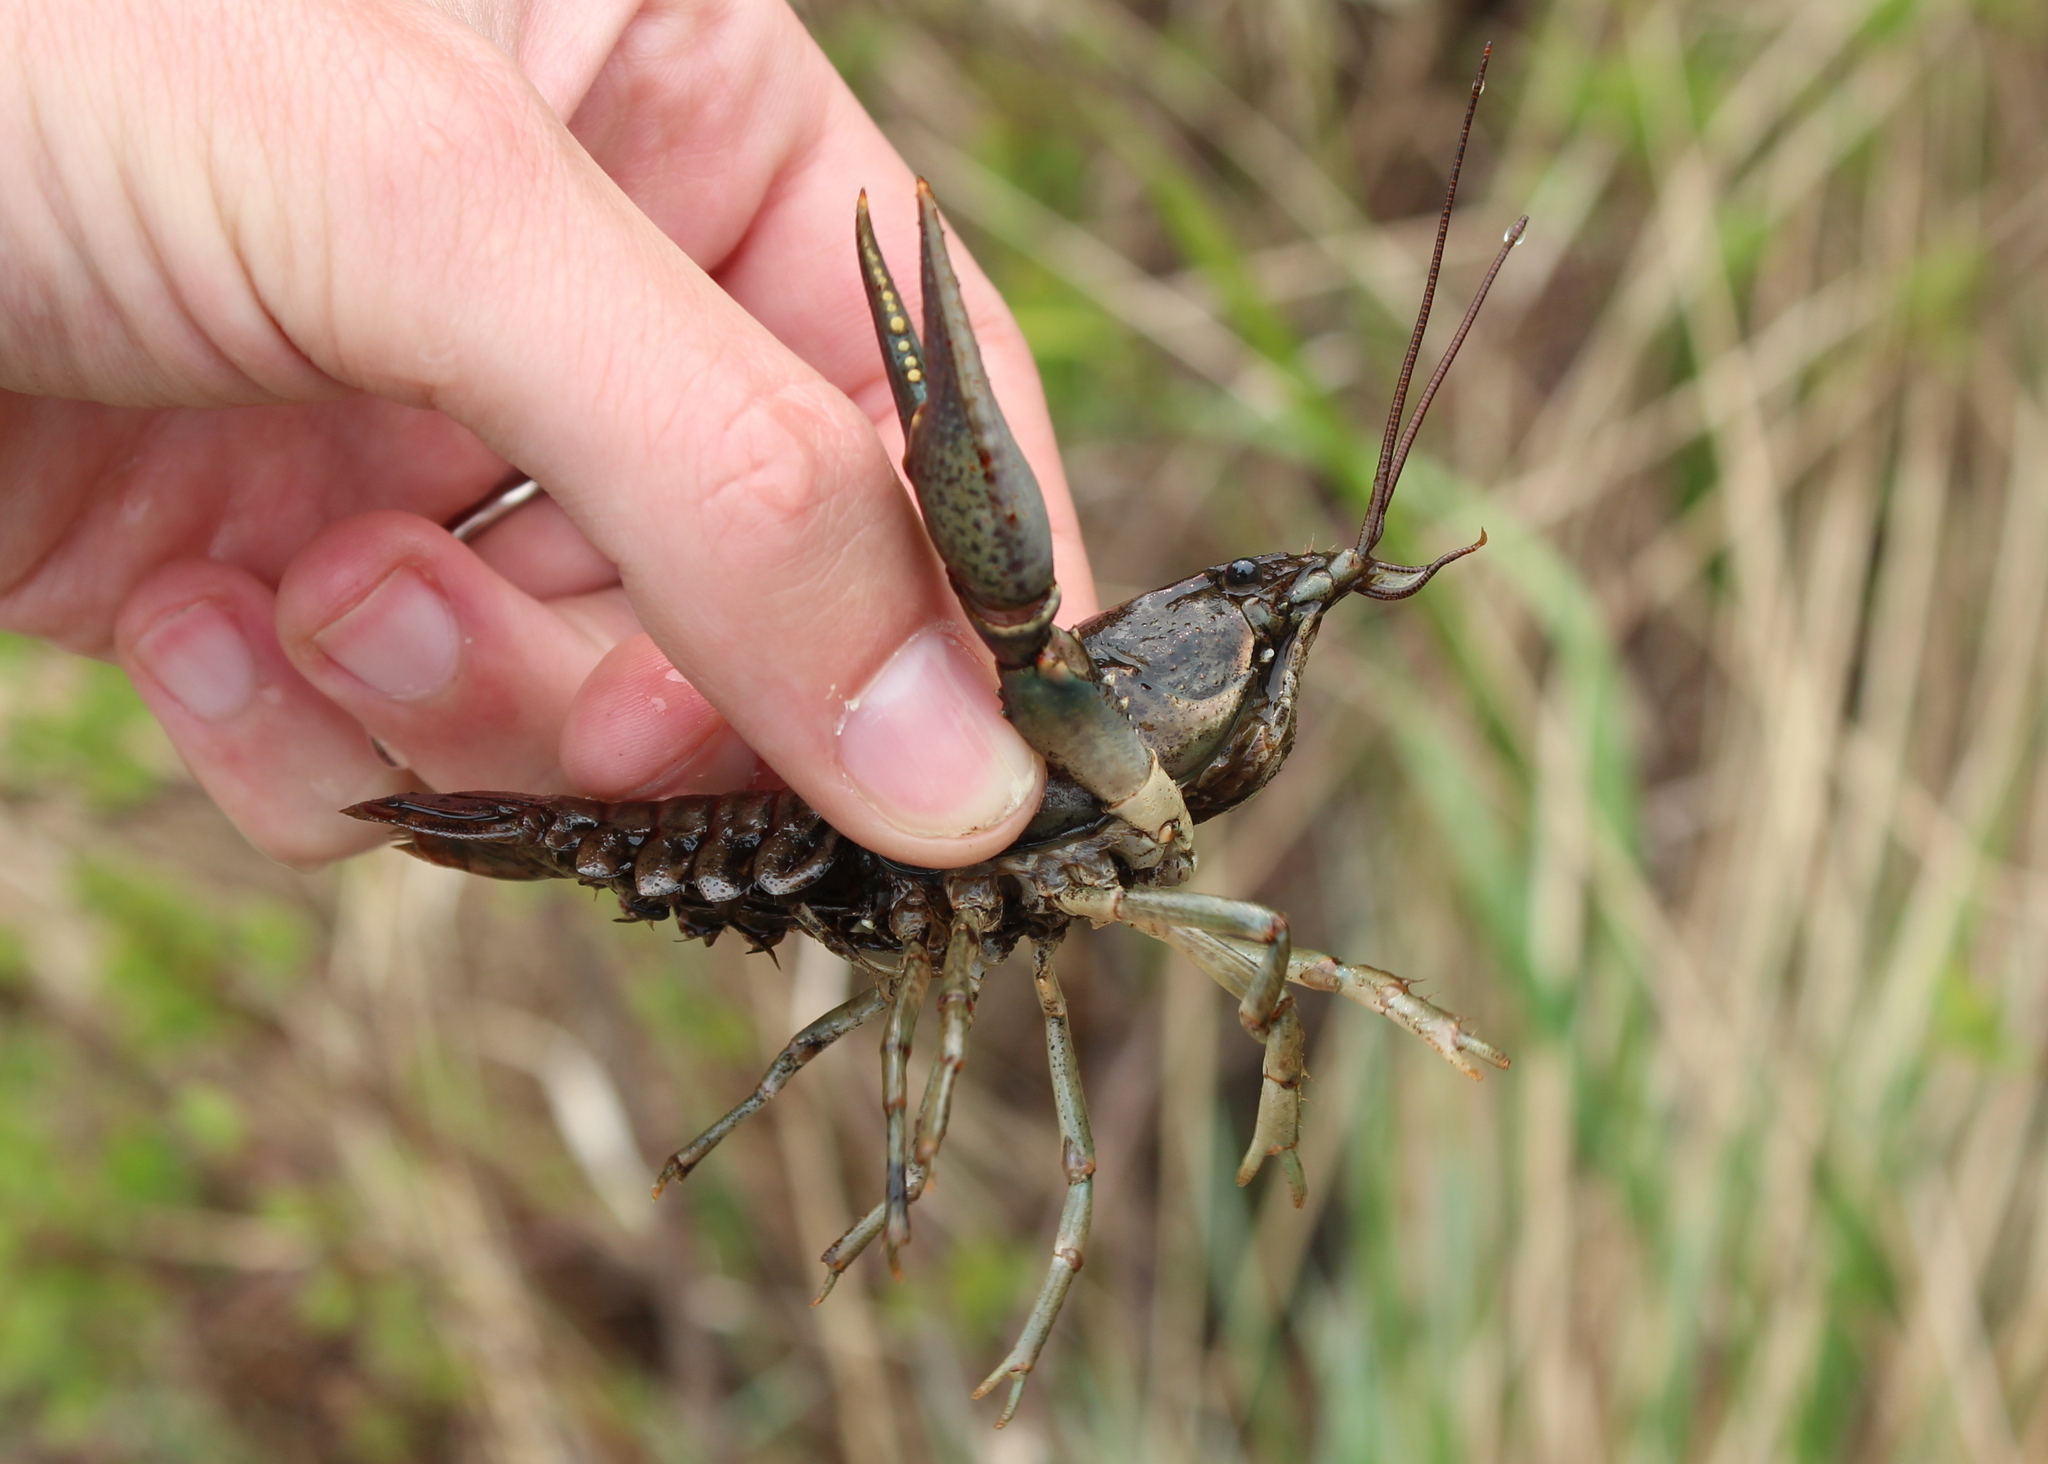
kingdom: Animalia
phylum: Arthropoda
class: Malacostraca
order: Decapoda
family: Cambaridae
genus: Faxonius
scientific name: Faxonius virilis
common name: Virile crayfish
